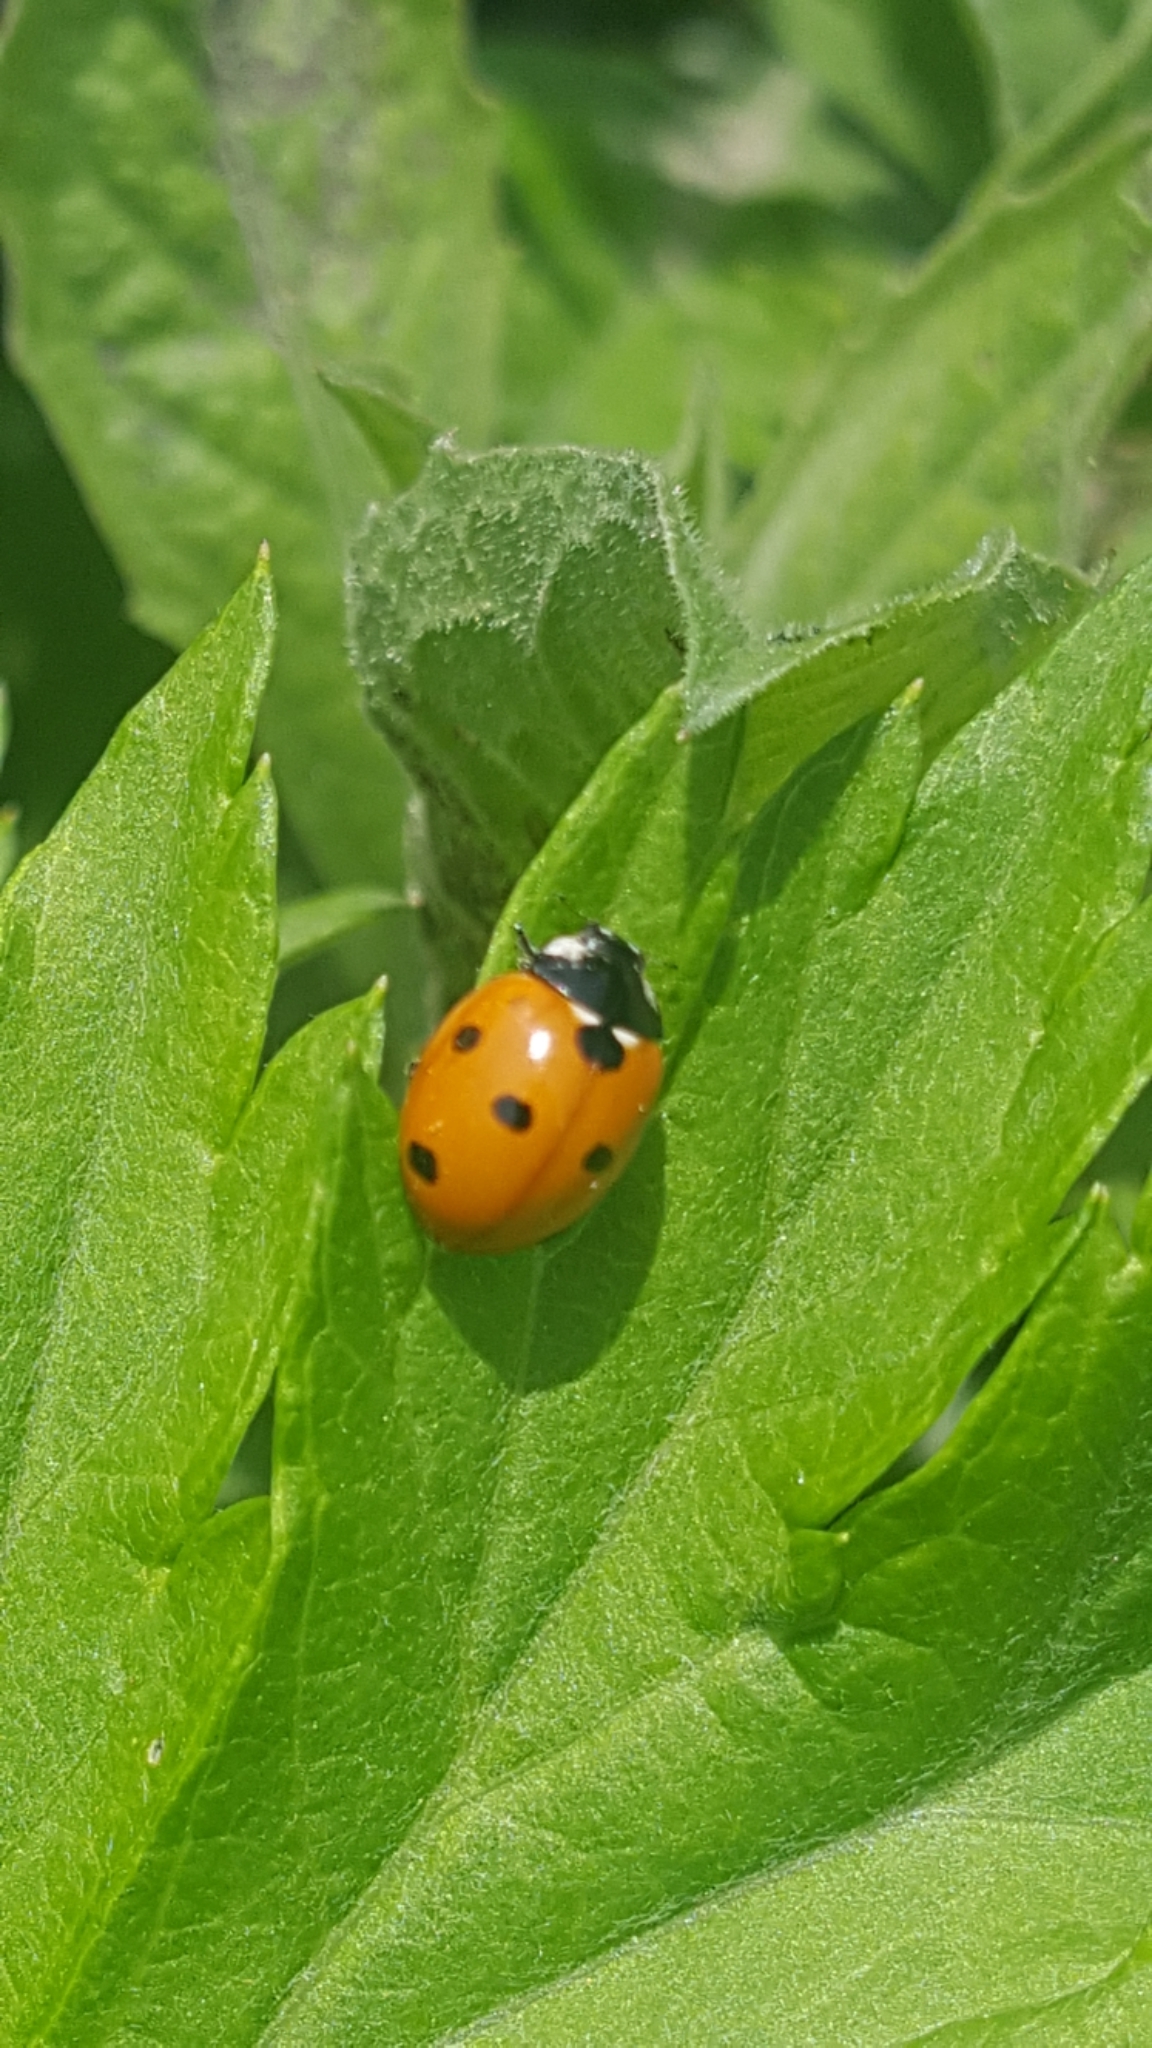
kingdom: Animalia
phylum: Arthropoda
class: Insecta
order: Coleoptera
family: Coccinellidae
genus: Coccinella
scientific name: Coccinella septempunctata
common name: Sevenspotted lady beetle
